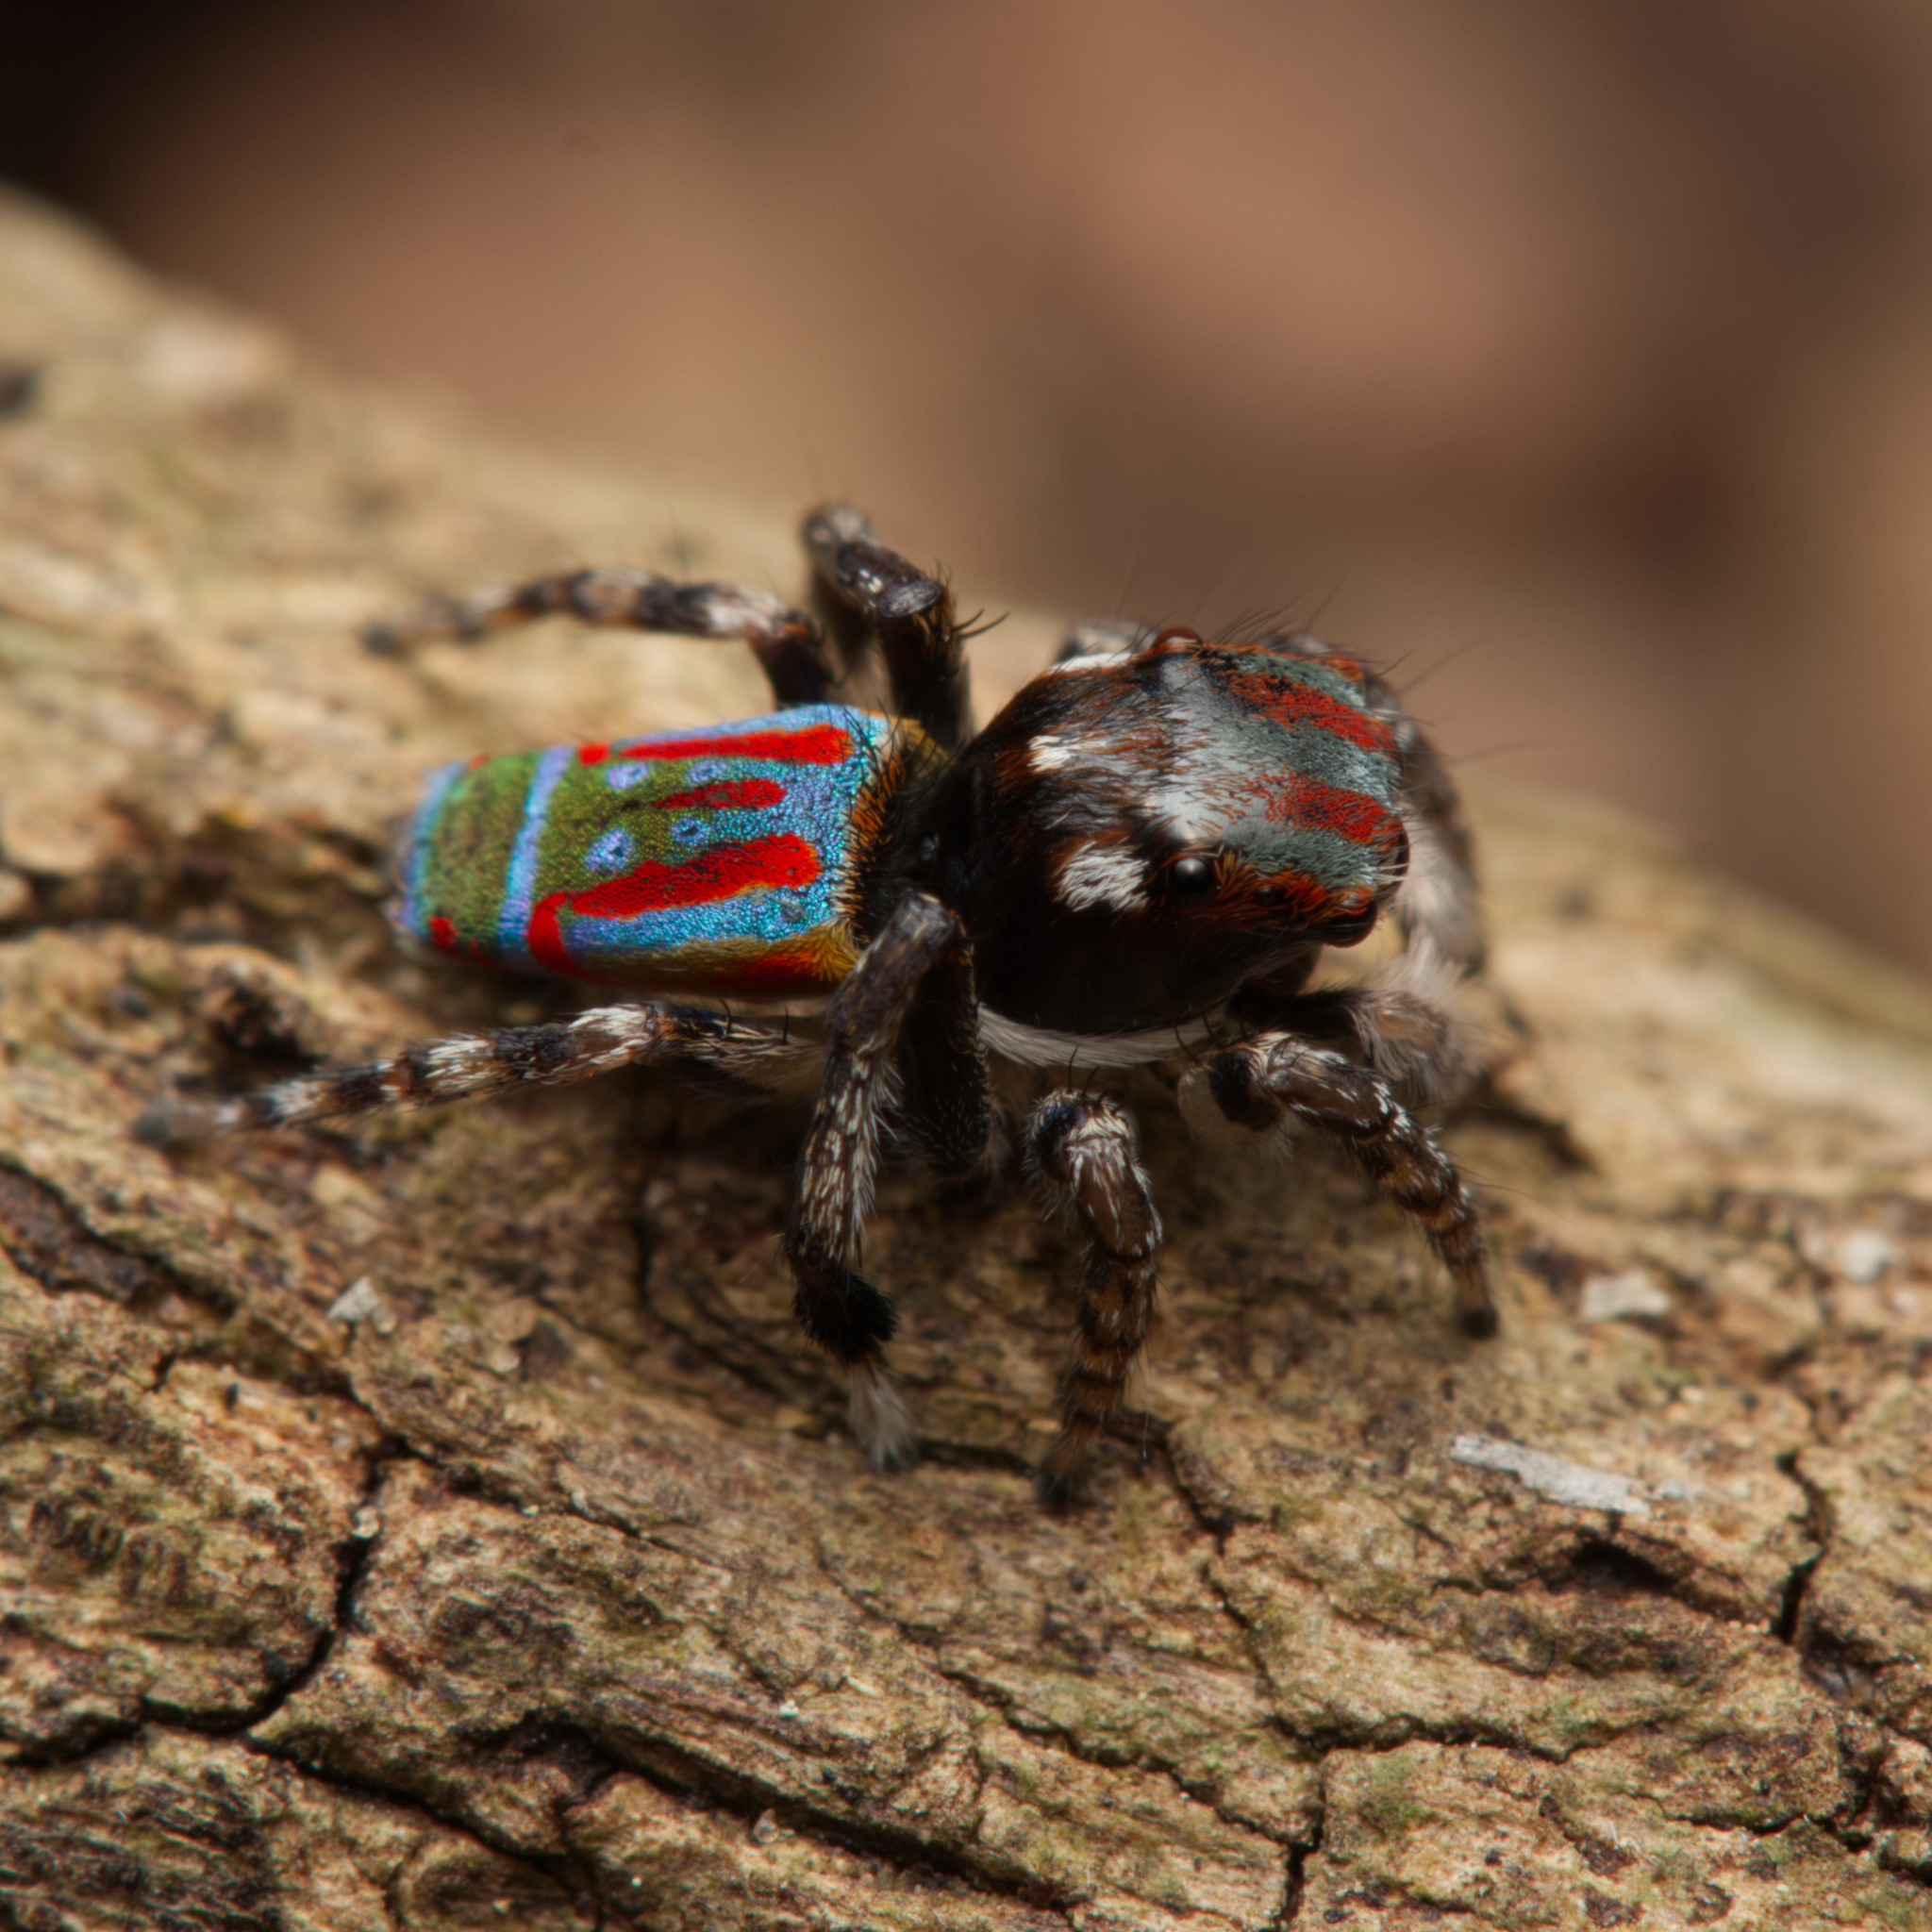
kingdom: Animalia
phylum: Arthropoda
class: Arachnida
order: Araneae
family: Salticidae
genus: Maratus
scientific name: Maratus volans
